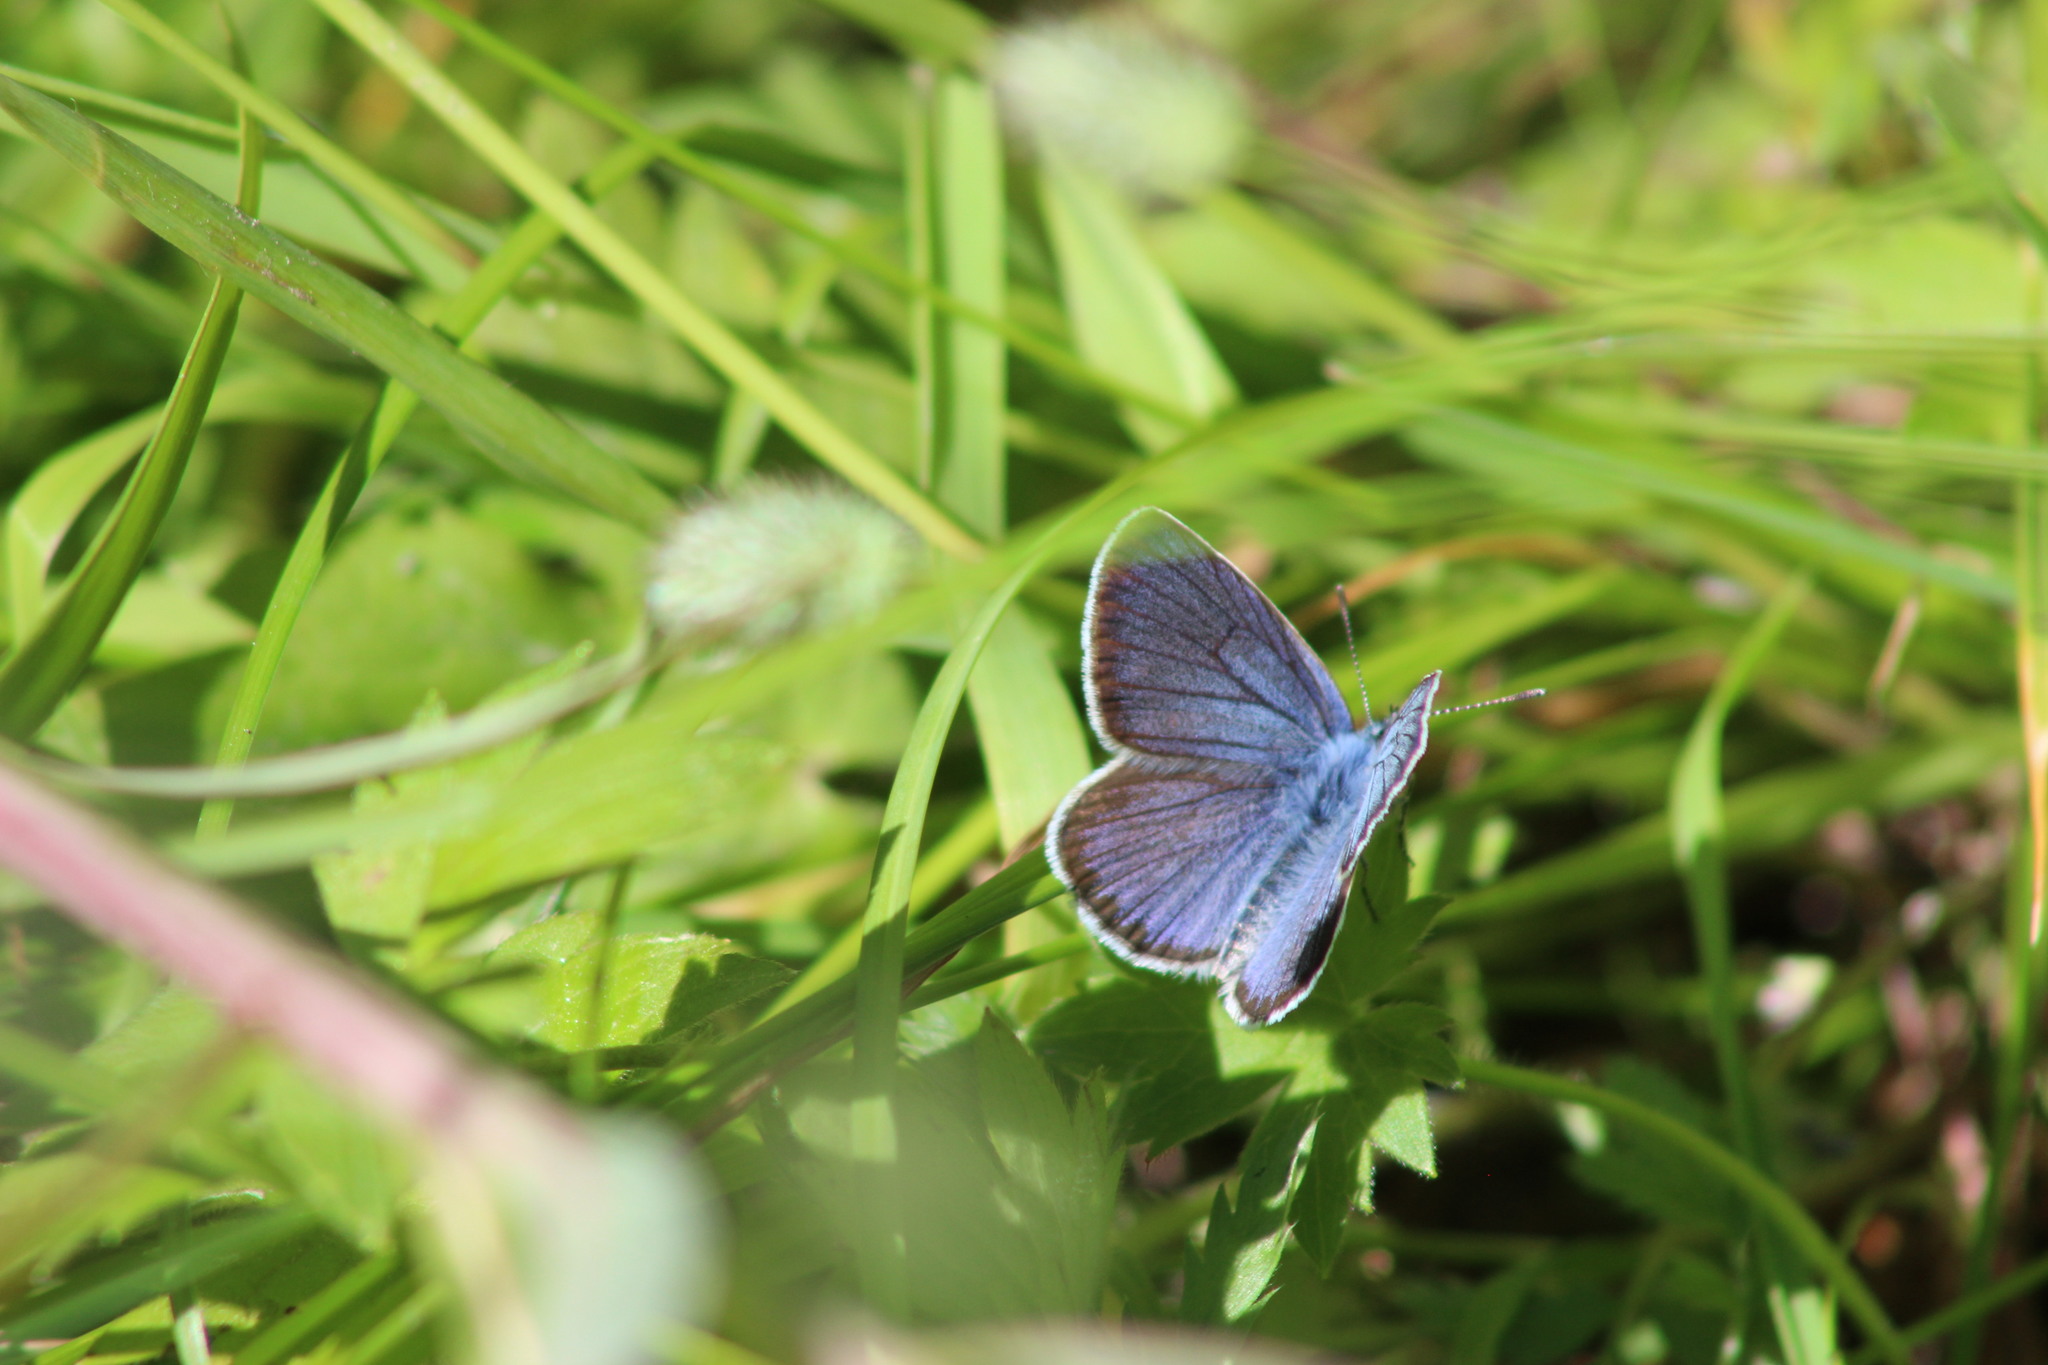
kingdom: Animalia
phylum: Arthropoda
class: Insecta
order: Lepidoptera
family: Lycaenidae
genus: Cyaniris
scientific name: Cyaniris semiargus
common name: Mazarine blue
